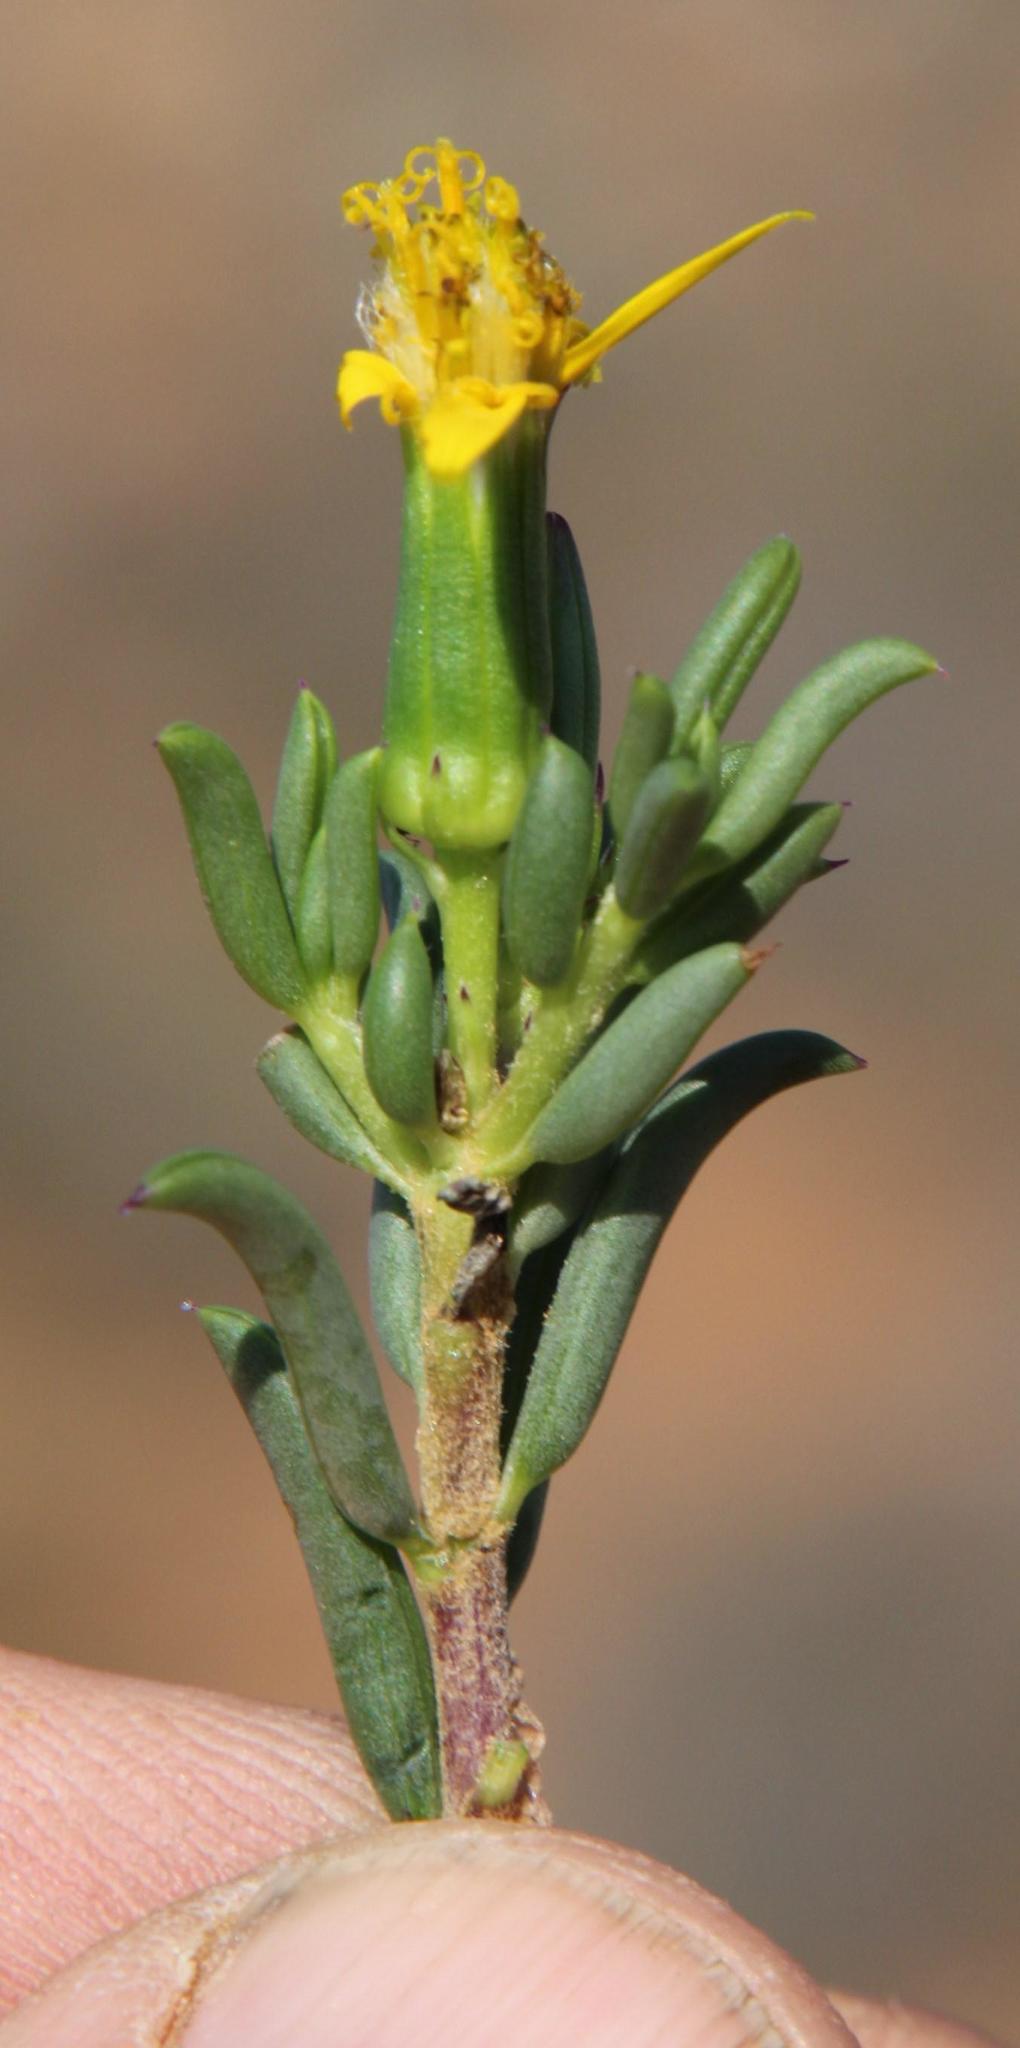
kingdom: Plantae
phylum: Tracheophyta
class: Magnoliopsida
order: Asterales
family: Asteraceae
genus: Senecio
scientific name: Senecio acutifolius
